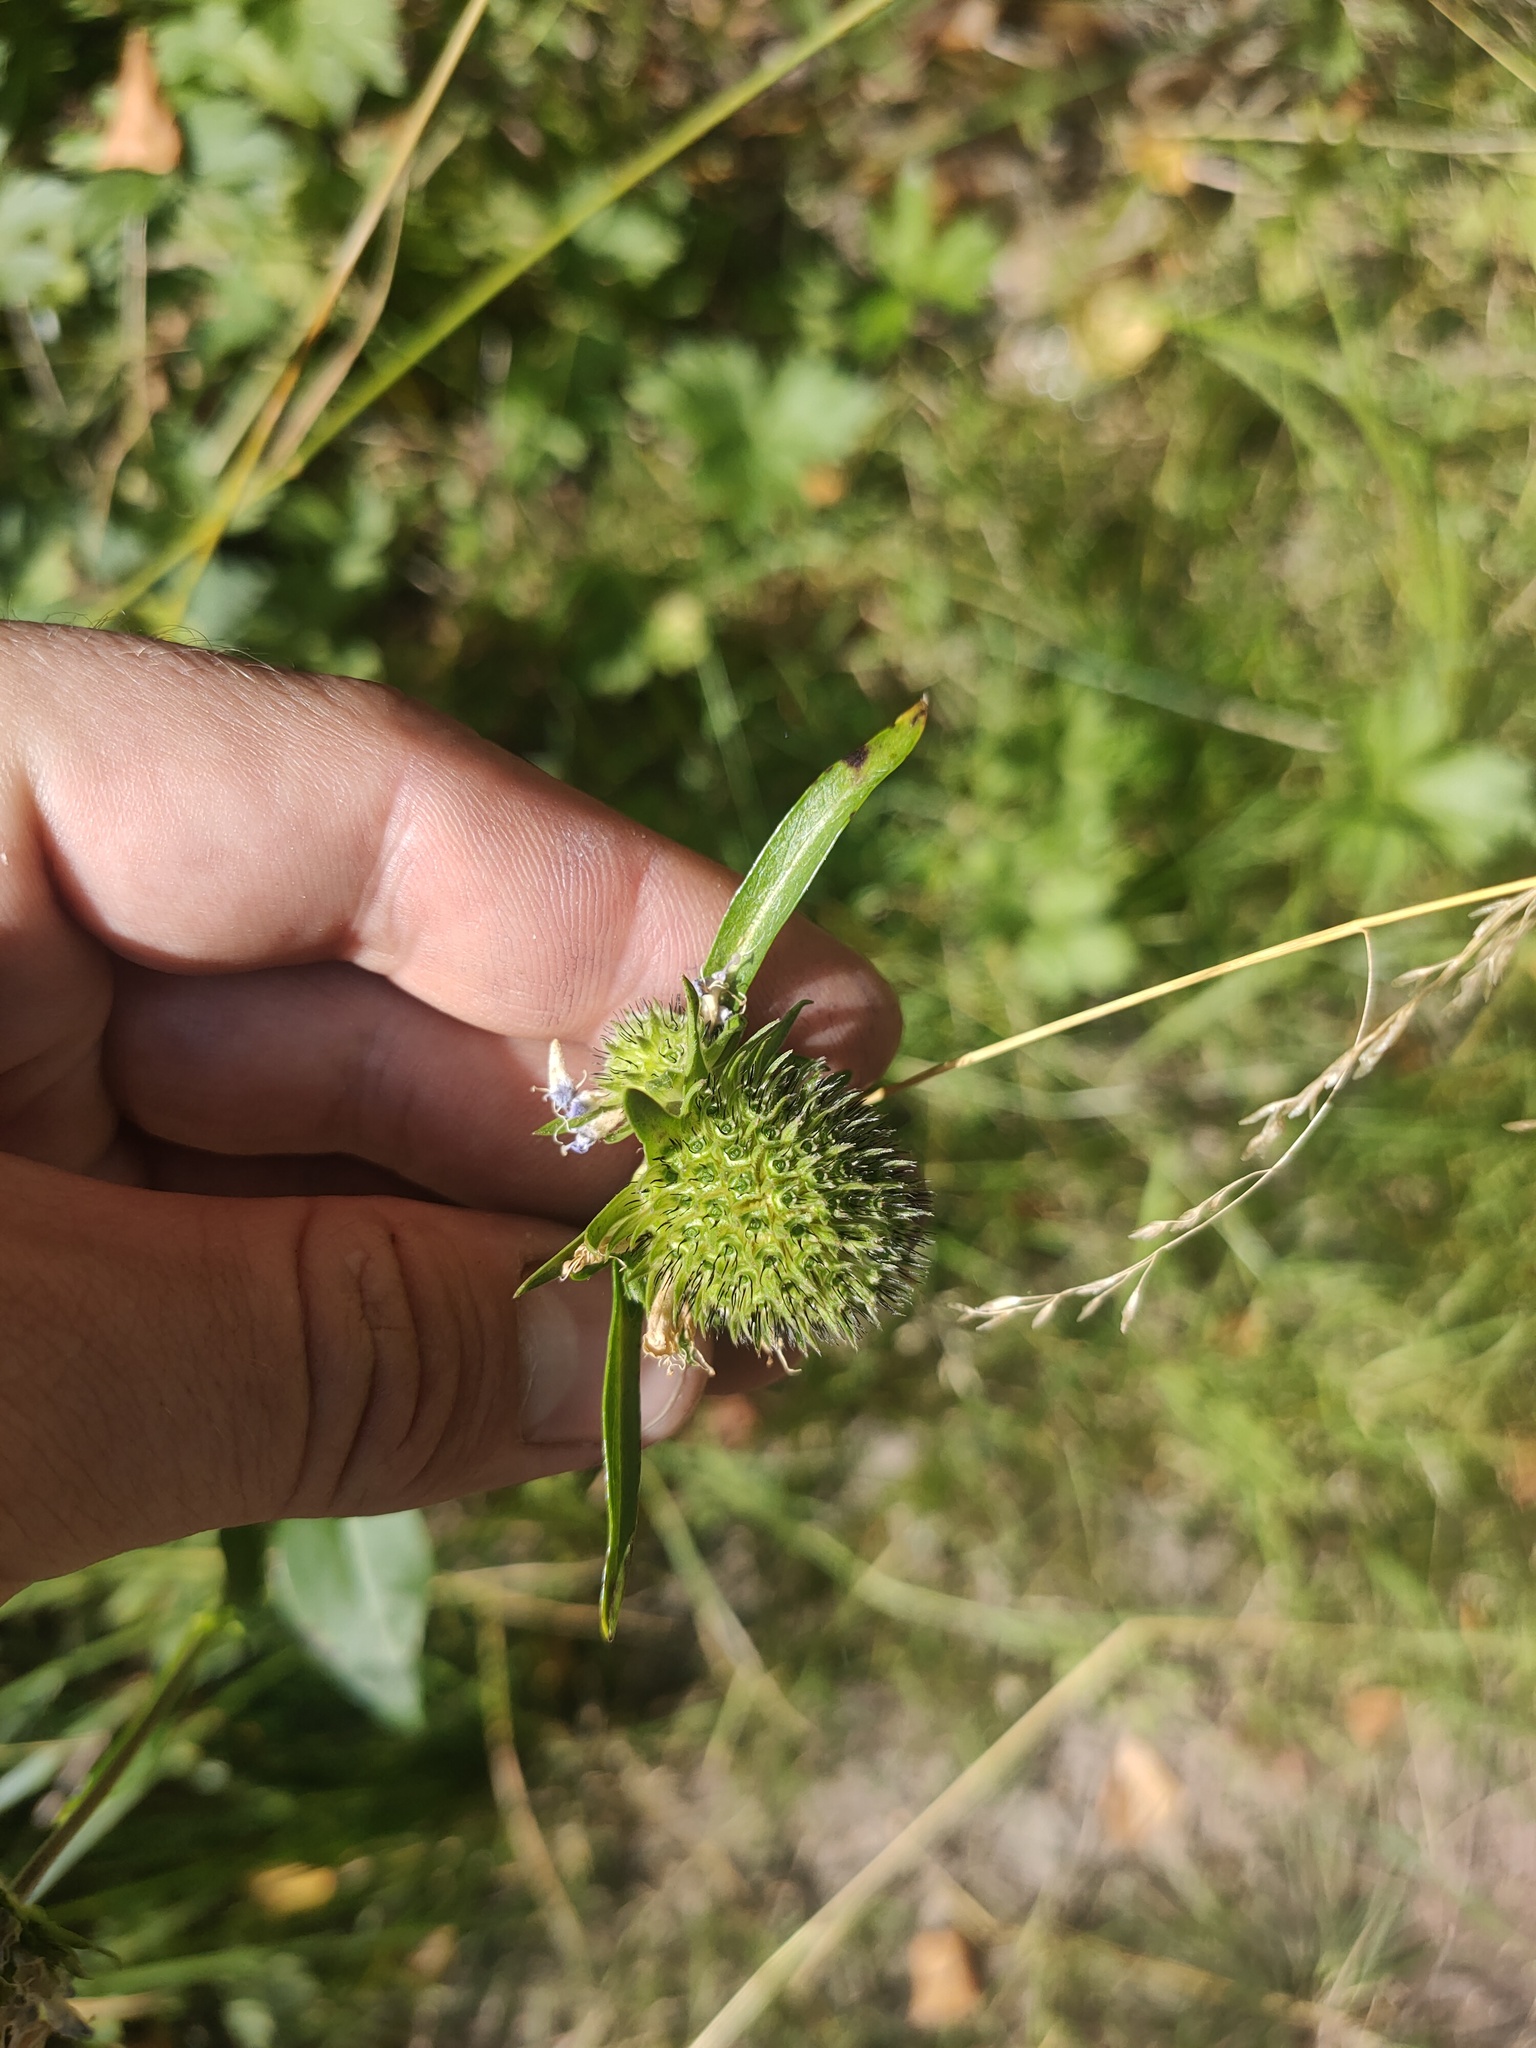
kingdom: Plantae
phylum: Tracheophyta
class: Magnoliopsida
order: Dipsacales
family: Caprifoliaceae
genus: Succisa
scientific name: Succisa pratensis
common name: Devil's-bit
